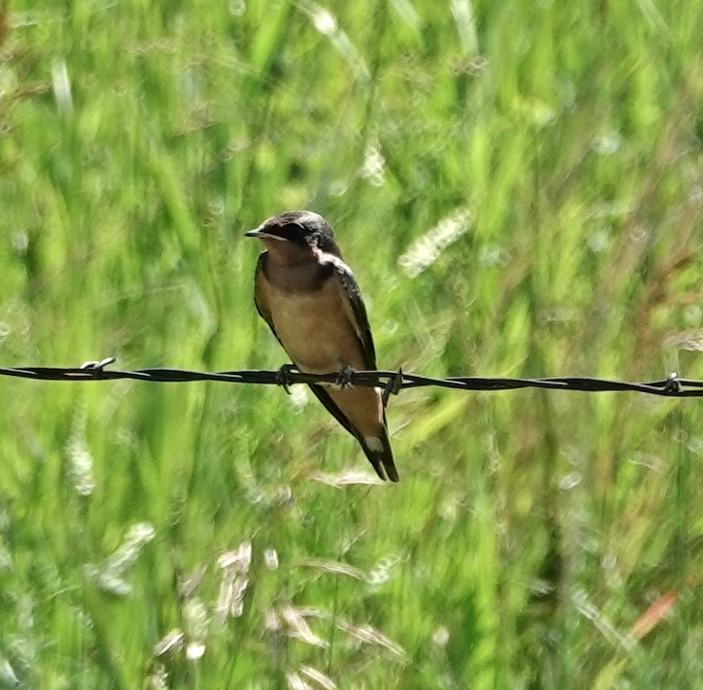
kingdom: Animalia
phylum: Chordata
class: Aves
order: Passeriformes
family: Hirundinidae
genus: Hirundo
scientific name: Hirundo rustica
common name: Barn swallow
